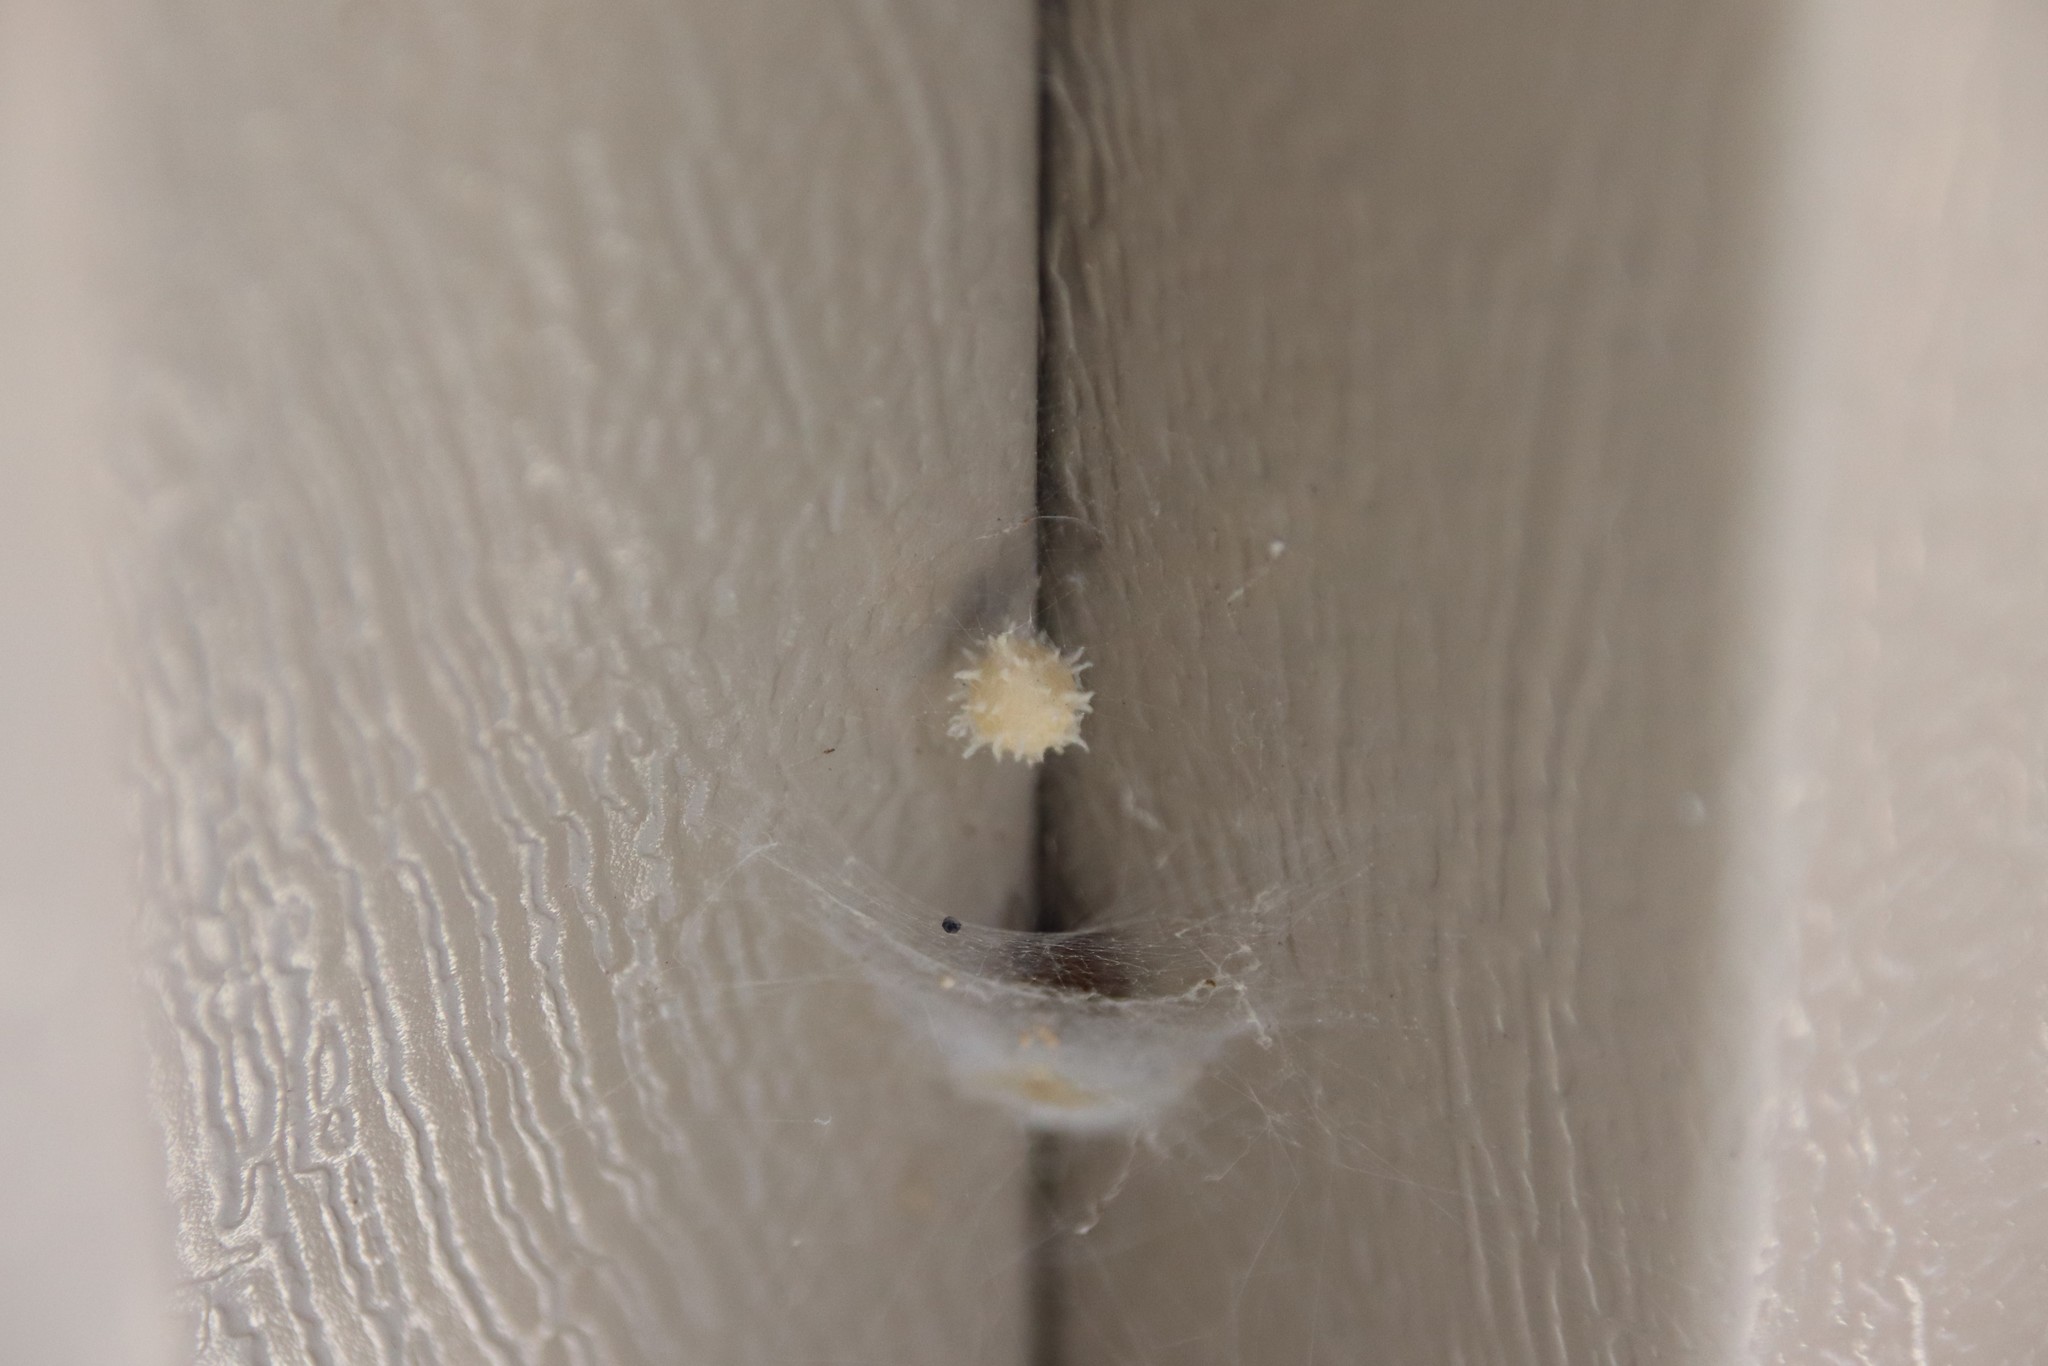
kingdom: Animalia
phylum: Arthropoda
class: Arachnida
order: Araneae
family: Theridiidae
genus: Latrodectus
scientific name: Latrodectus geometricus
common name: Brown widow spider
